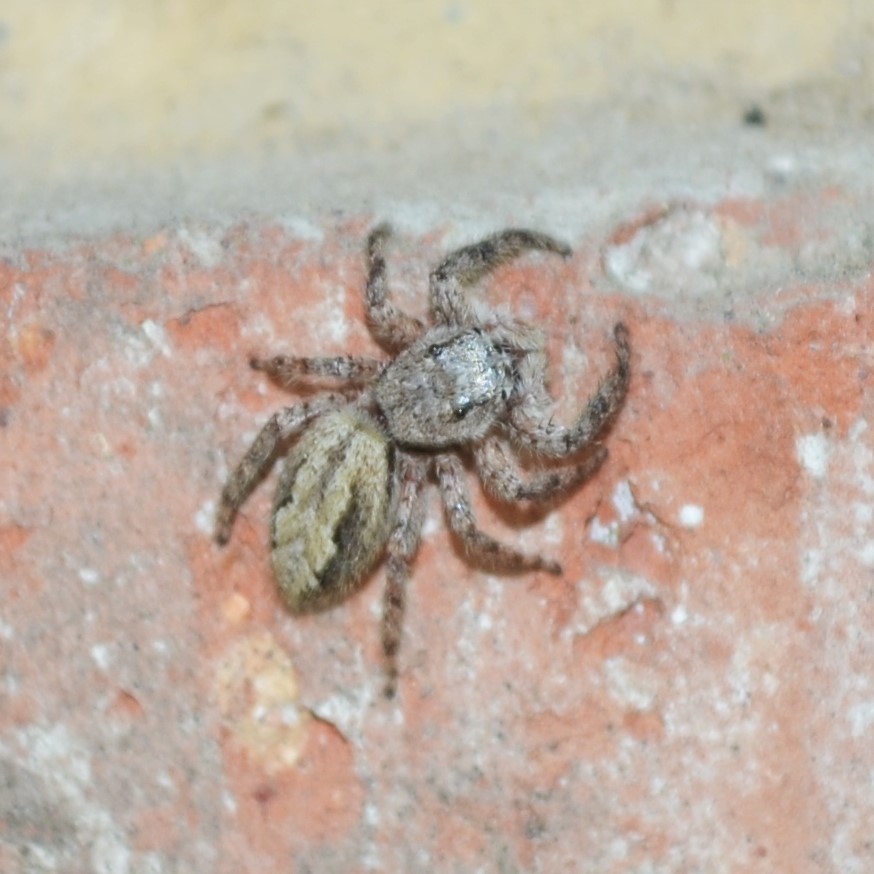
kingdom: Animalia
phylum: Arthropoda
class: Arachnida
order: Araneae
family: Salticidae
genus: Platycryptus
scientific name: Platycryptus undatus
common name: Tan jumping spider
